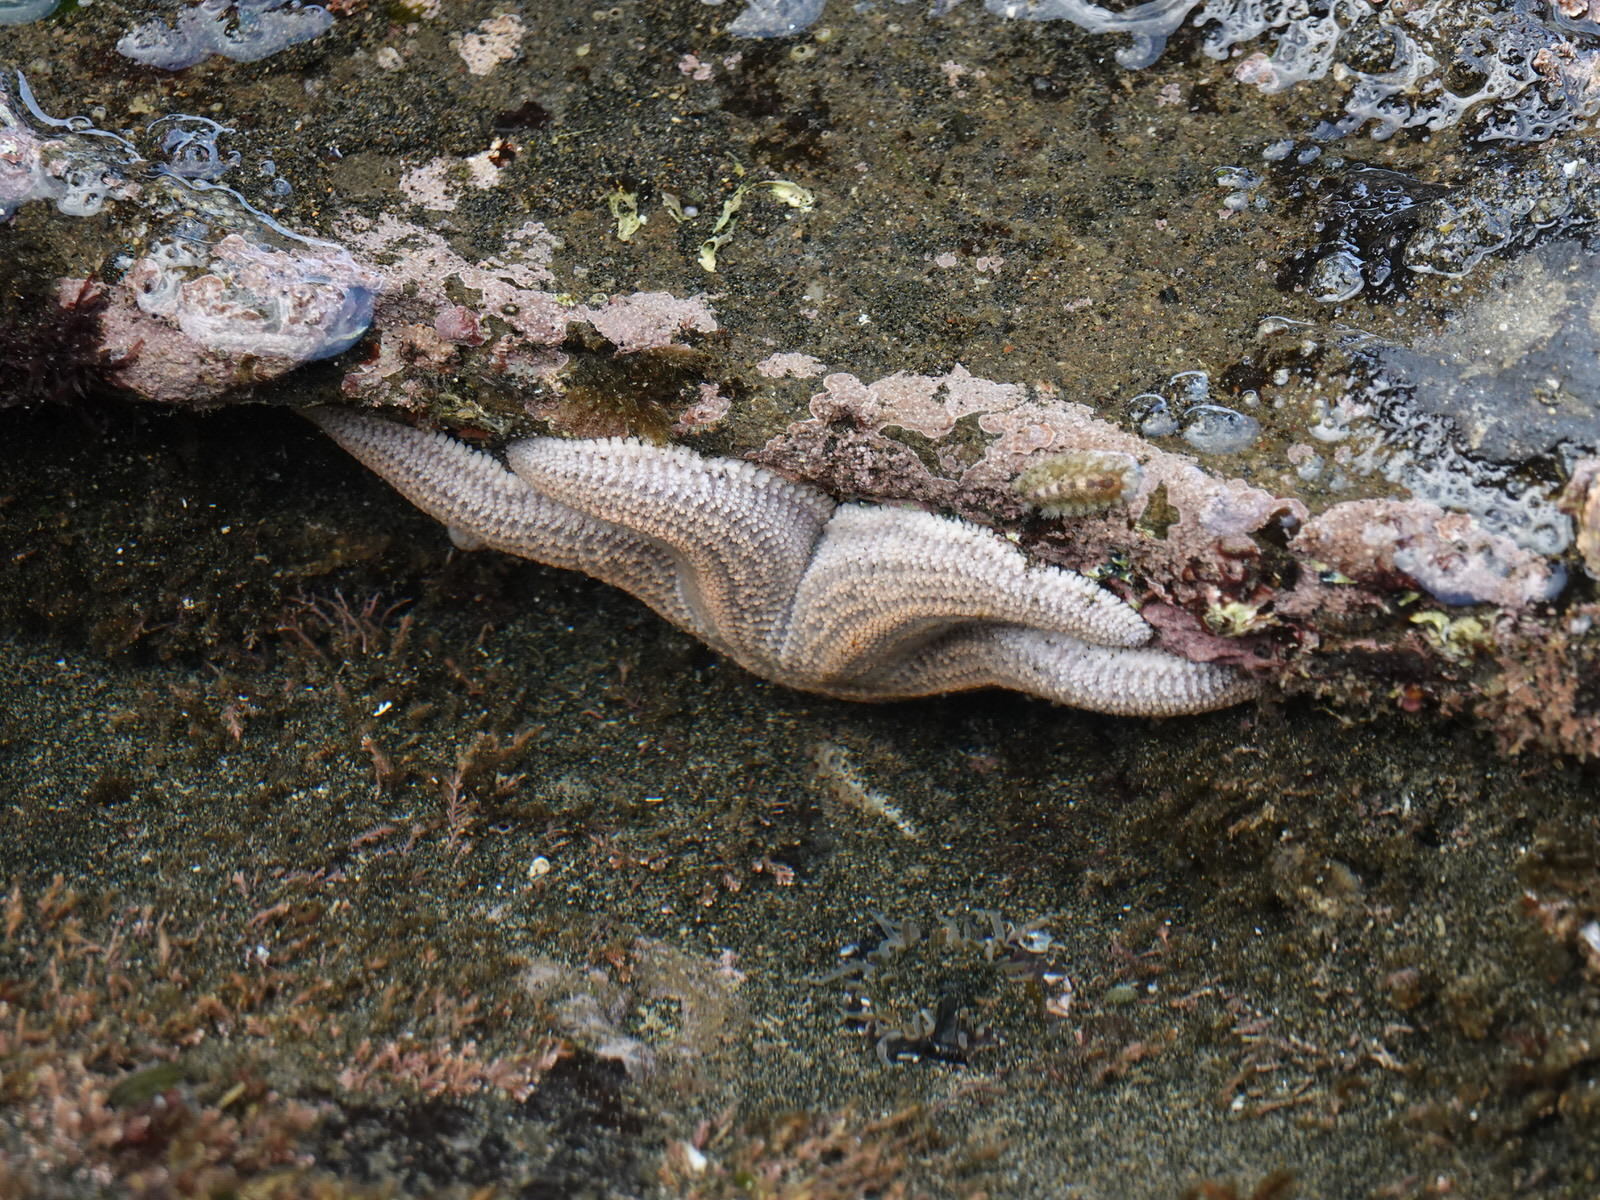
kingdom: Animalia
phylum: Echinodermata
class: Asteroidea
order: Forcipulatida
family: Stichasteridae
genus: Stichaster
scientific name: Stichaster australis
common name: Reef starfish
